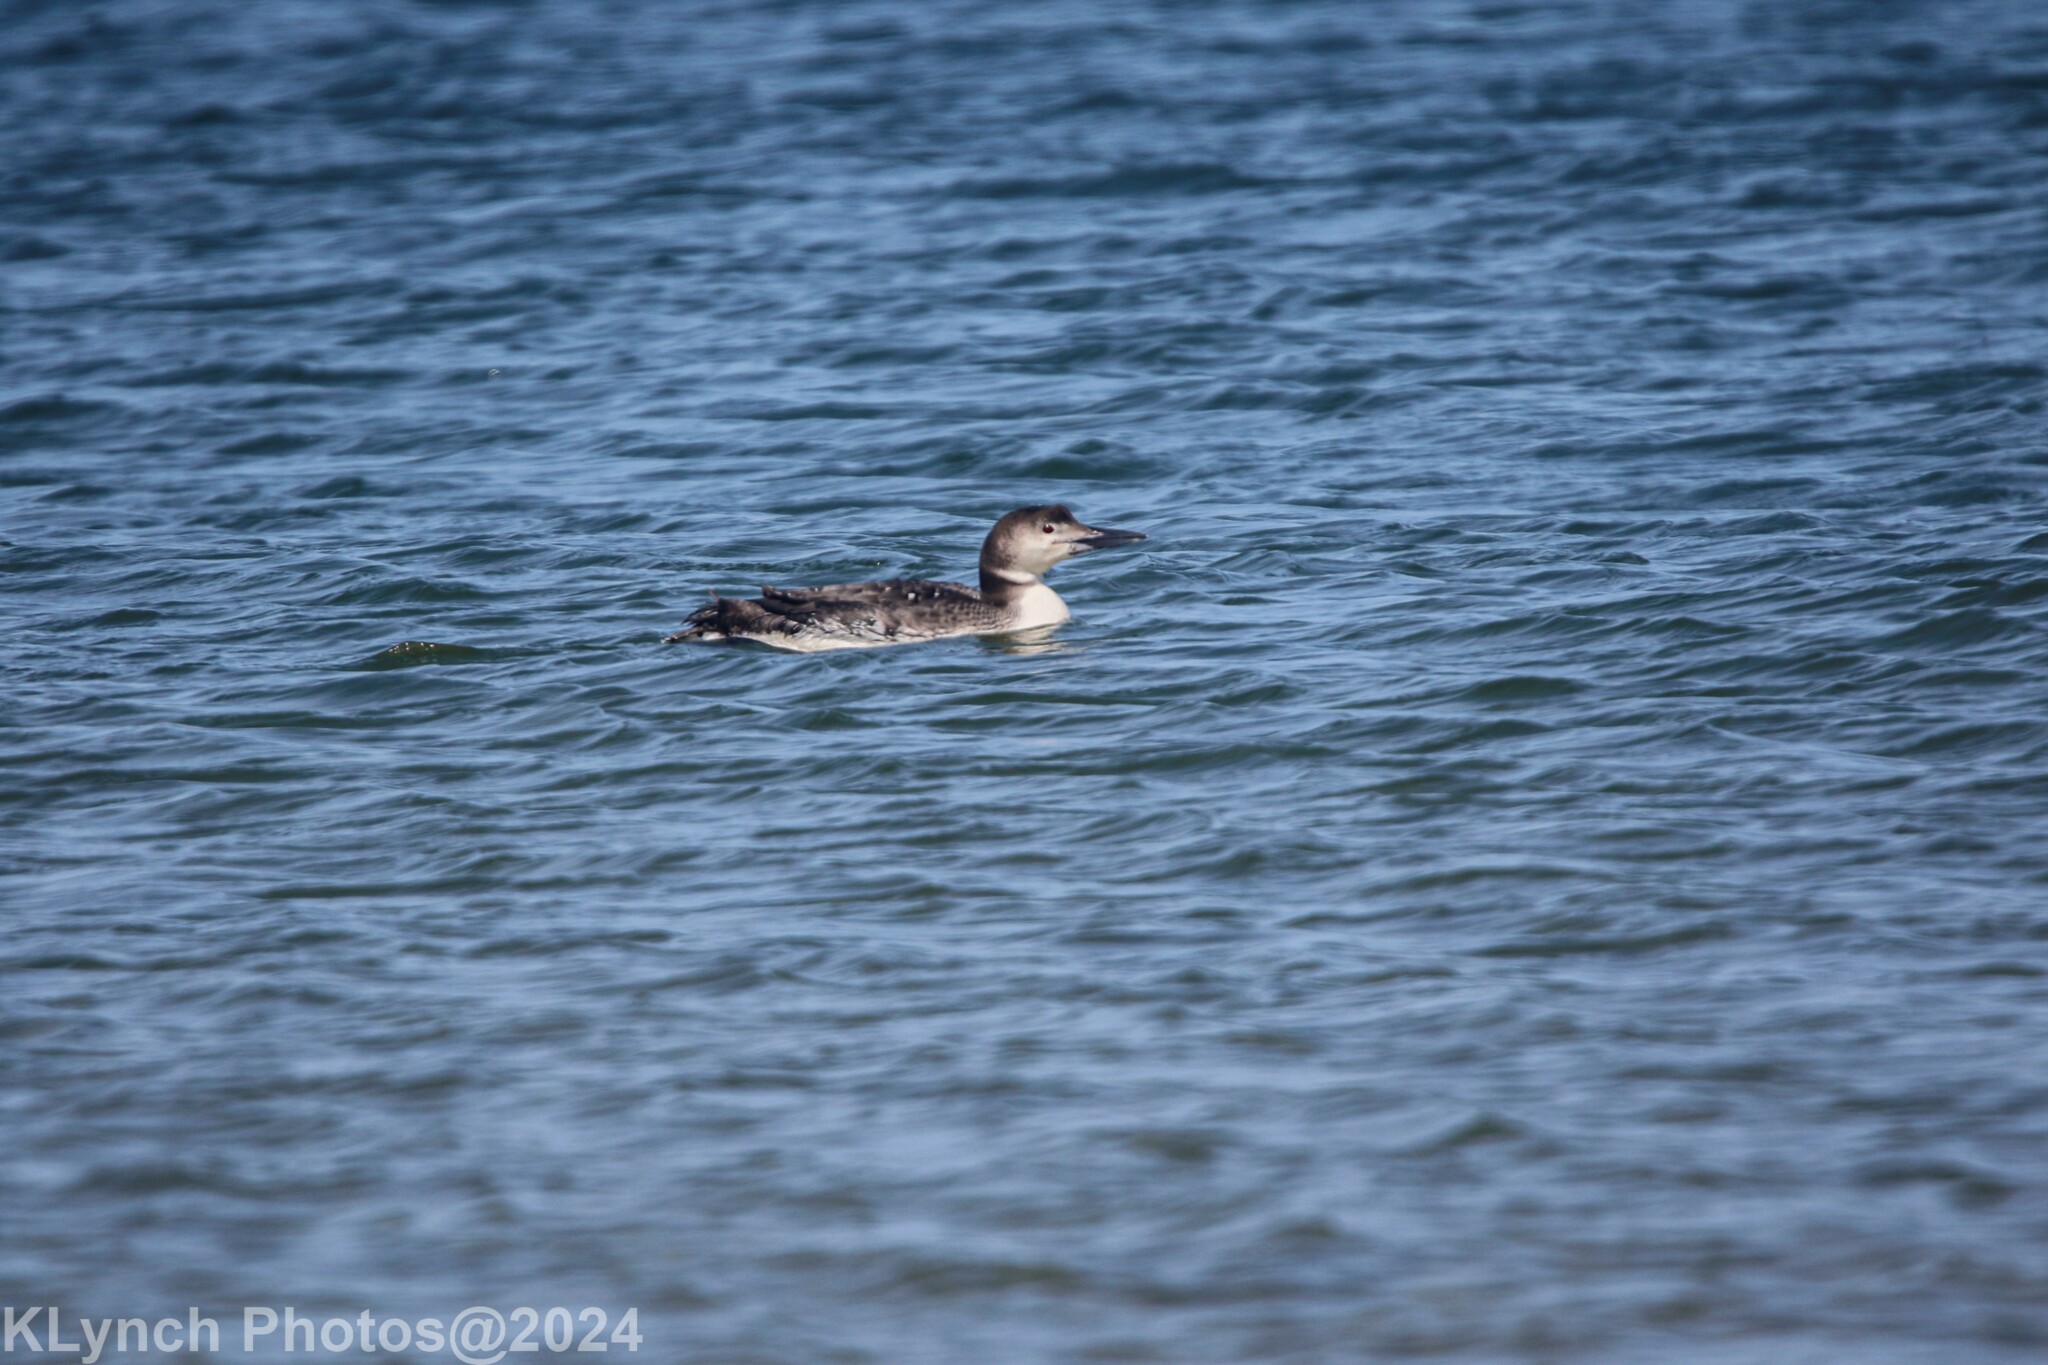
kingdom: Animalia
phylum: Chordata
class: Aves
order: Gaviiformes
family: Gaviidae
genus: Gavia
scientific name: Gavia immer
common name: Common loon
